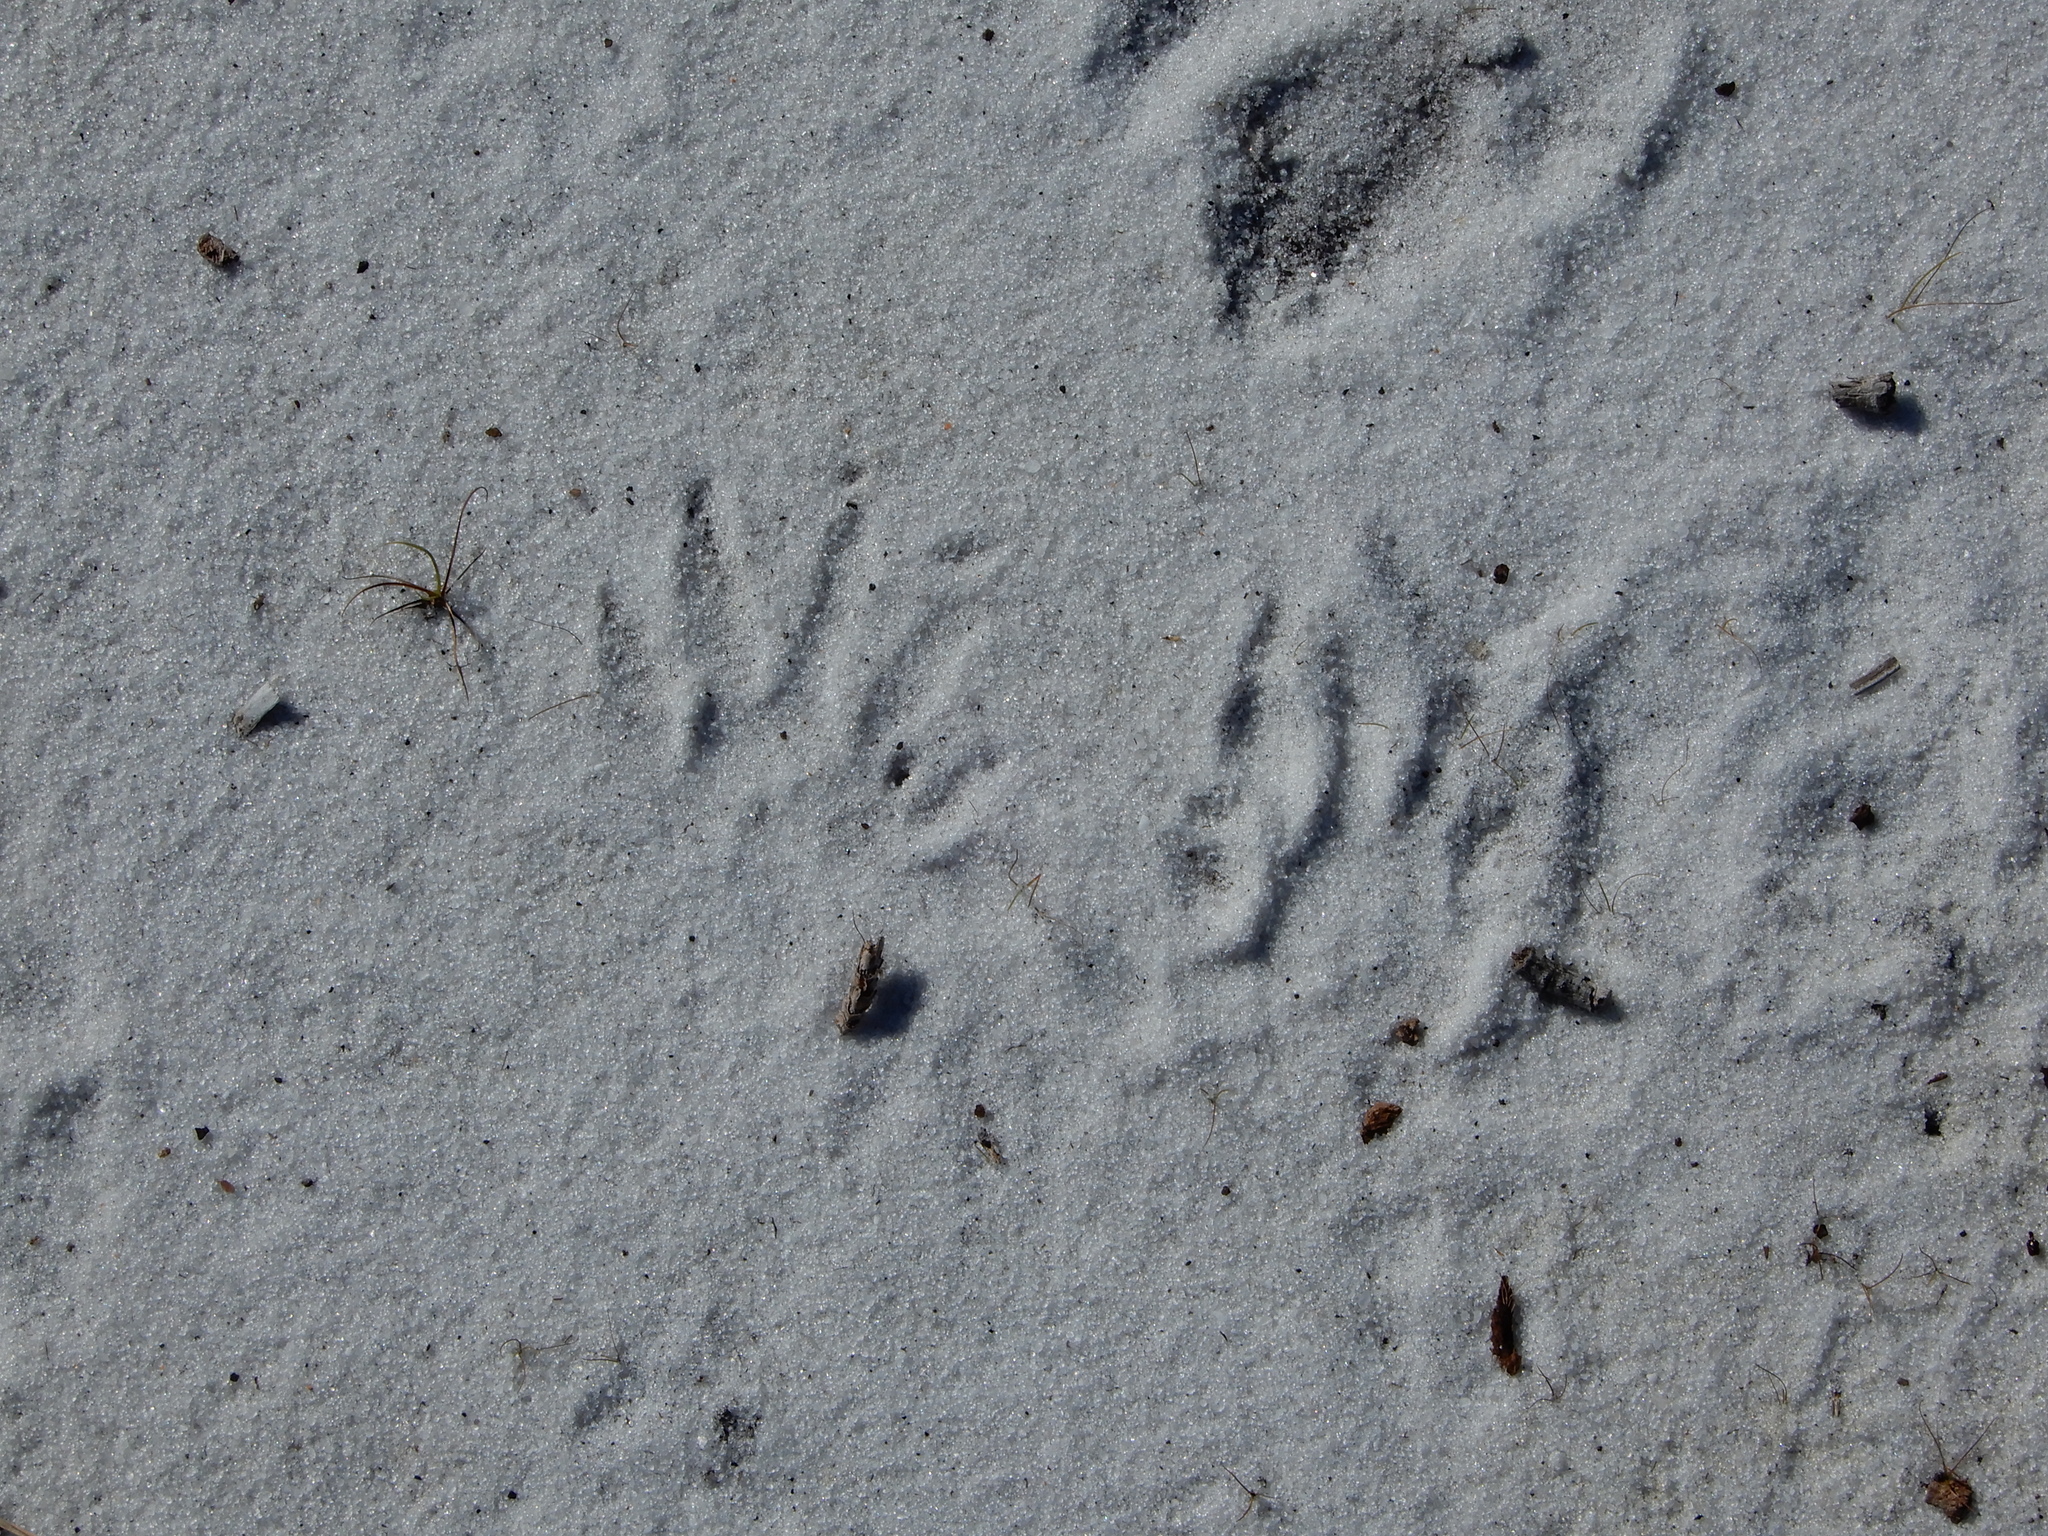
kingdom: Animalia
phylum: Chordata
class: Mammalia
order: Carnivora
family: Procyonidae
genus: Procyon
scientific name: Procyon lotor
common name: Raccoon
